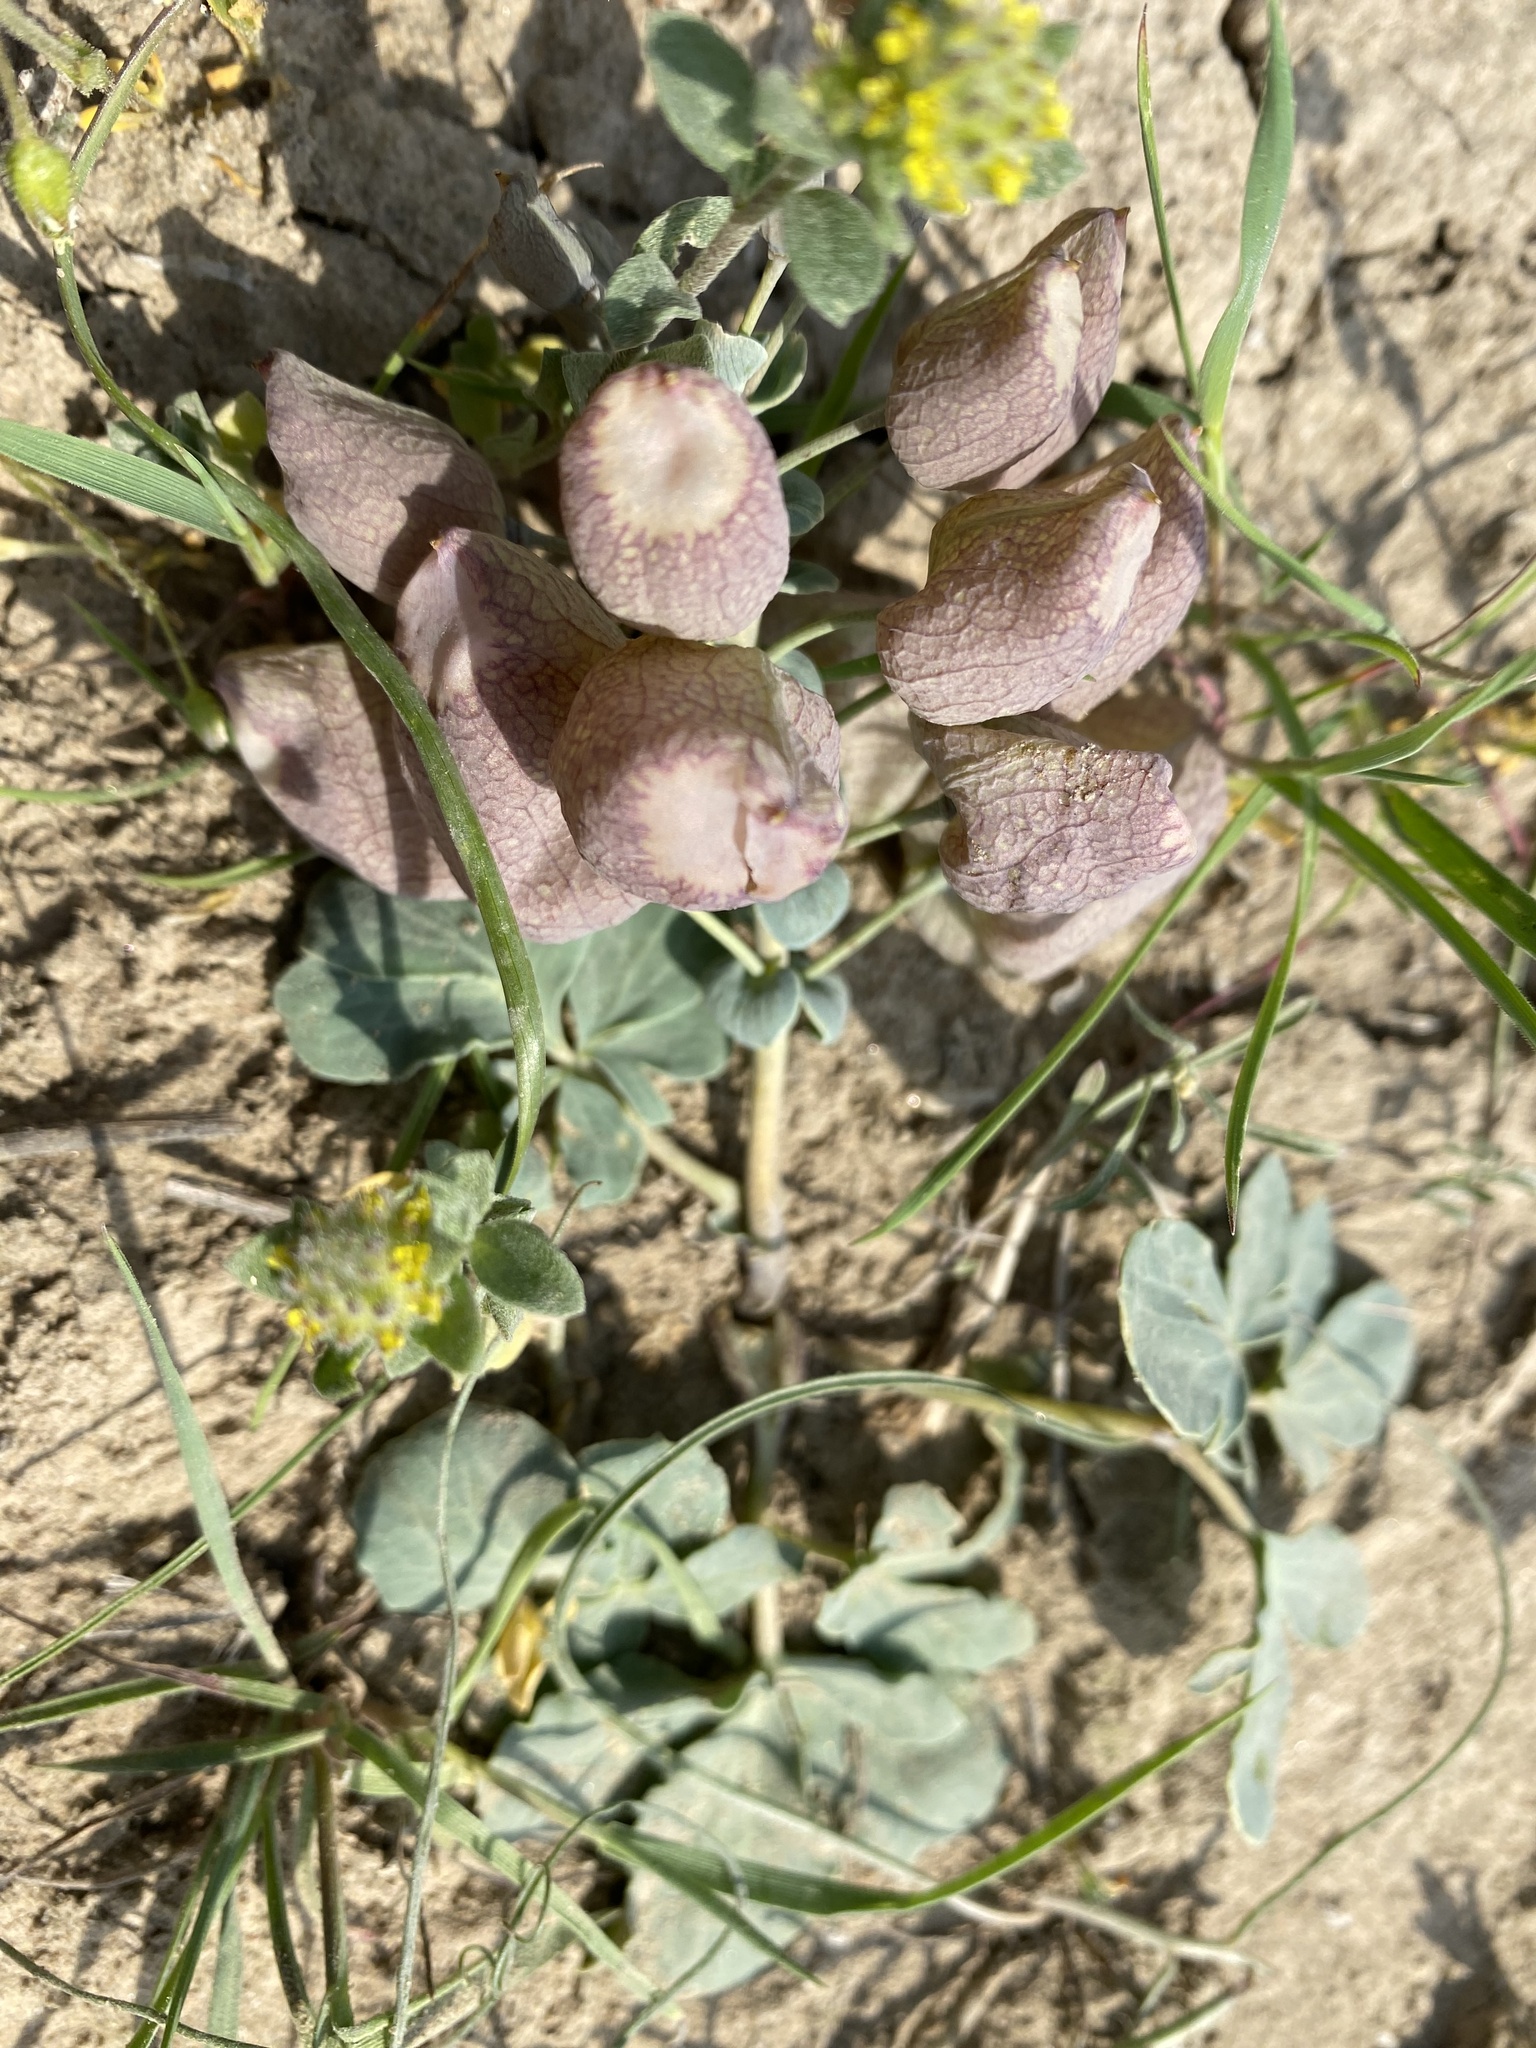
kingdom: Plantae
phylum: Tracheophyta
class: Magnoliopsida
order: Ranunculales
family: Berberidaceae
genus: Leontice
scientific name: Leontice incerta
